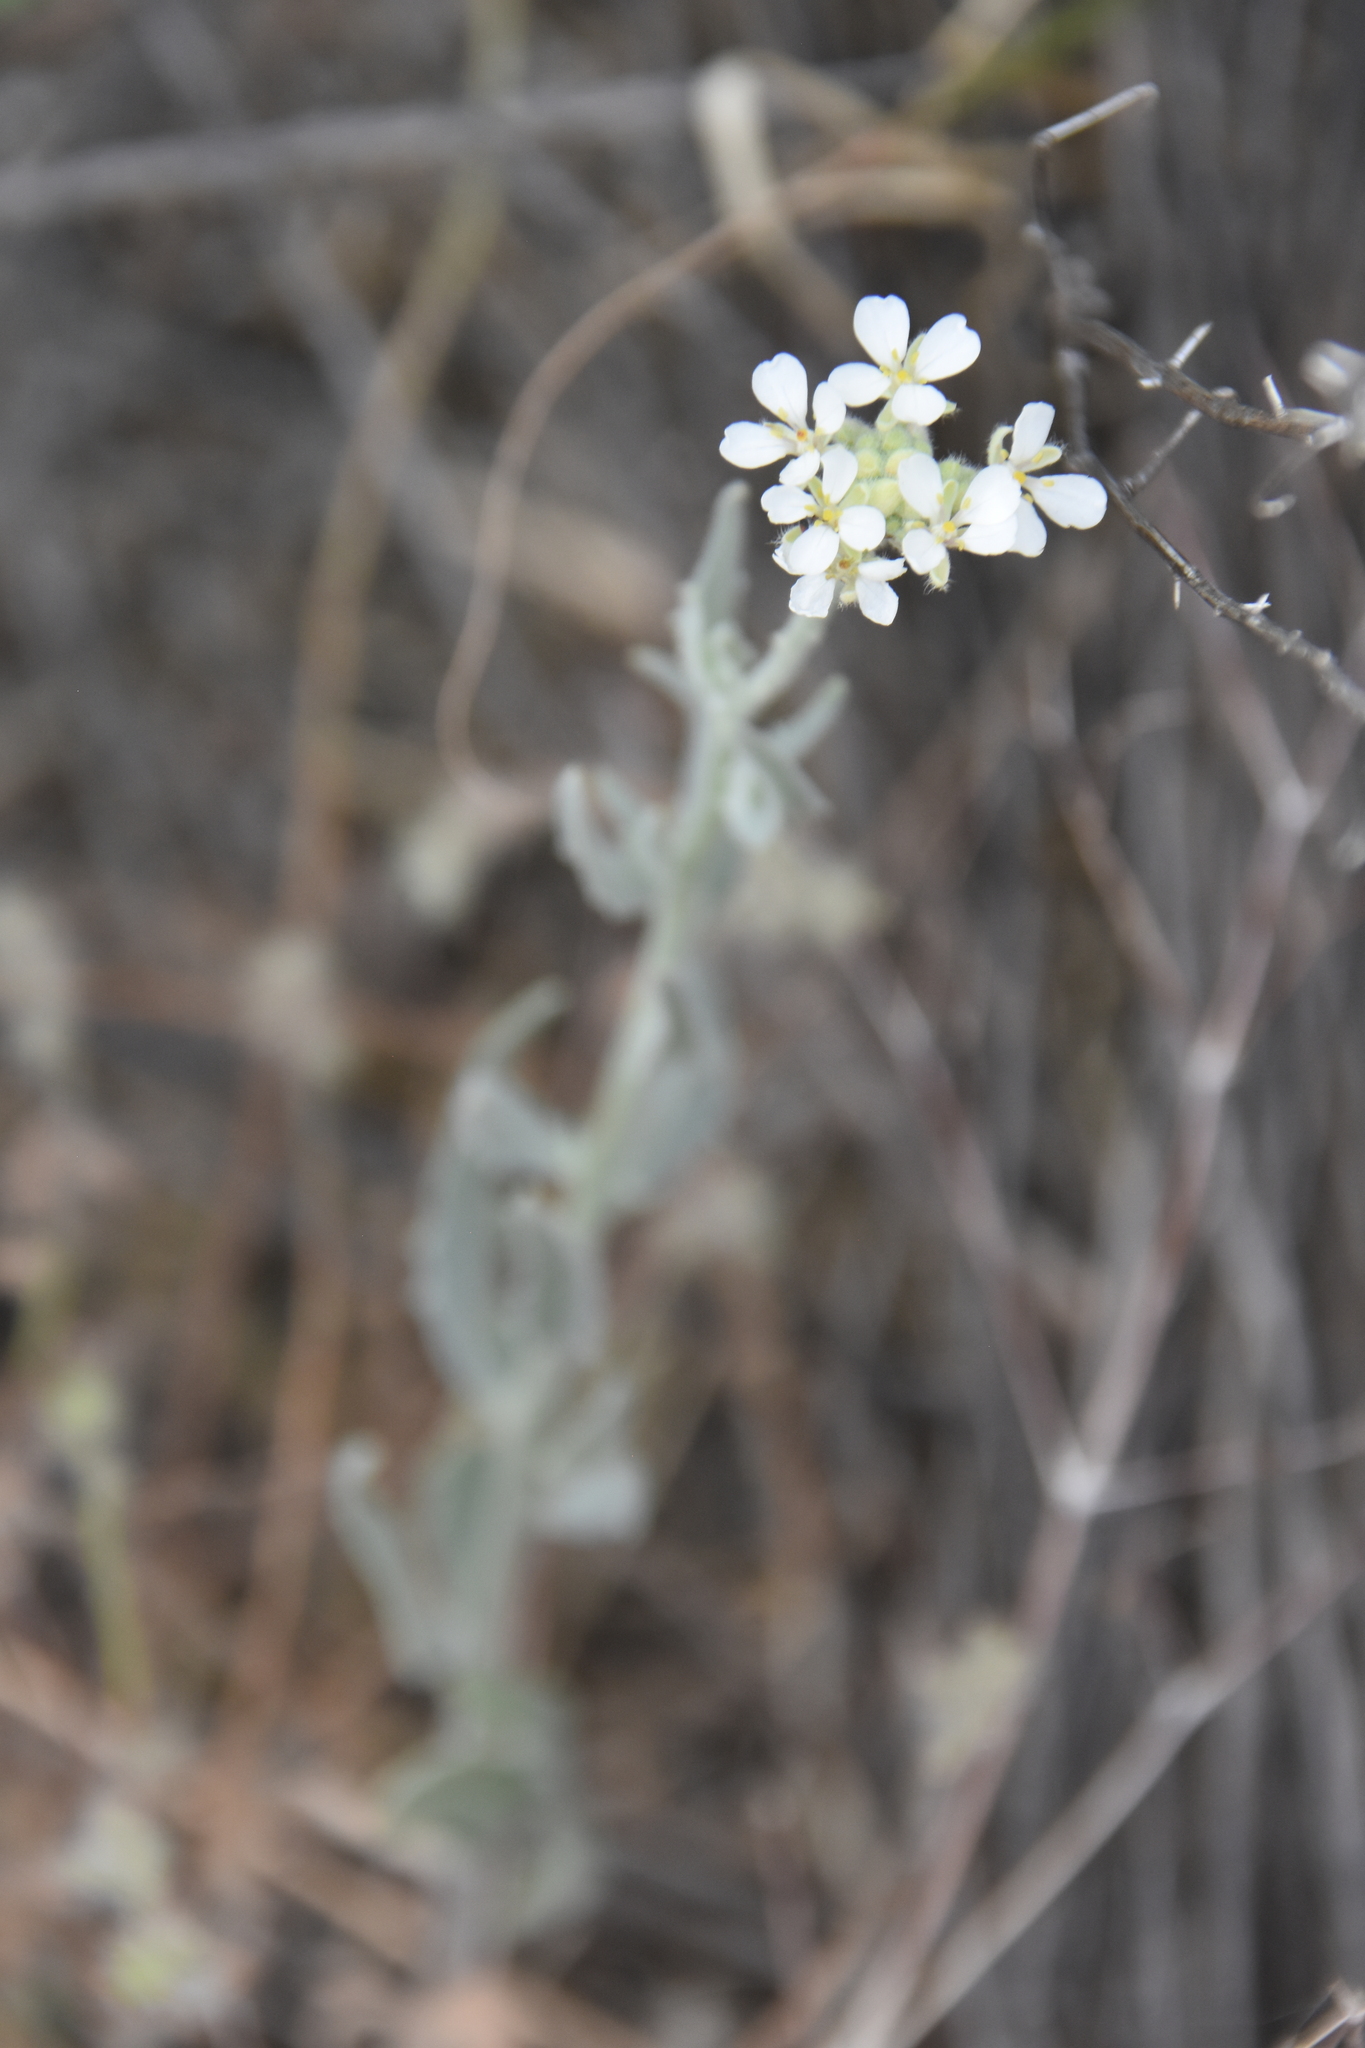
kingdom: Plantae
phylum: Tracheophyta
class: Magnoliopsida
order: Brassicales
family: Brassicaceae
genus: Dimorphocarpa
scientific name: Dimorphocarpa wislizenii
